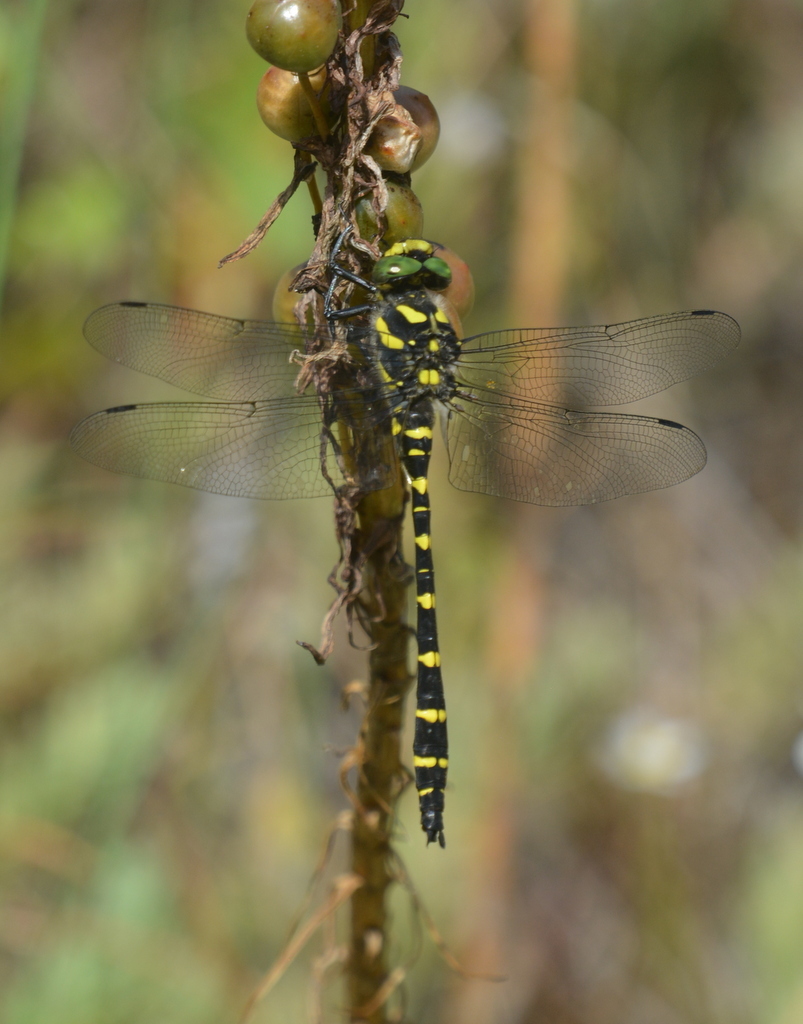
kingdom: Animalia
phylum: Arthropoda
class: Insecta
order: Odonata
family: Cordulegastridae
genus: Cordulegaster
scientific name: Cordulegaster bidentata
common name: Sombre goldenring
